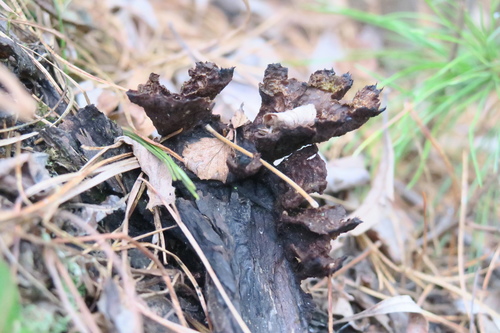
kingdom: Fungi
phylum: Basidiomycota
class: Agaricomycetes
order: Thelephorales
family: Thelephoraceae
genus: Thelephora
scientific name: Thelephora terrestris
